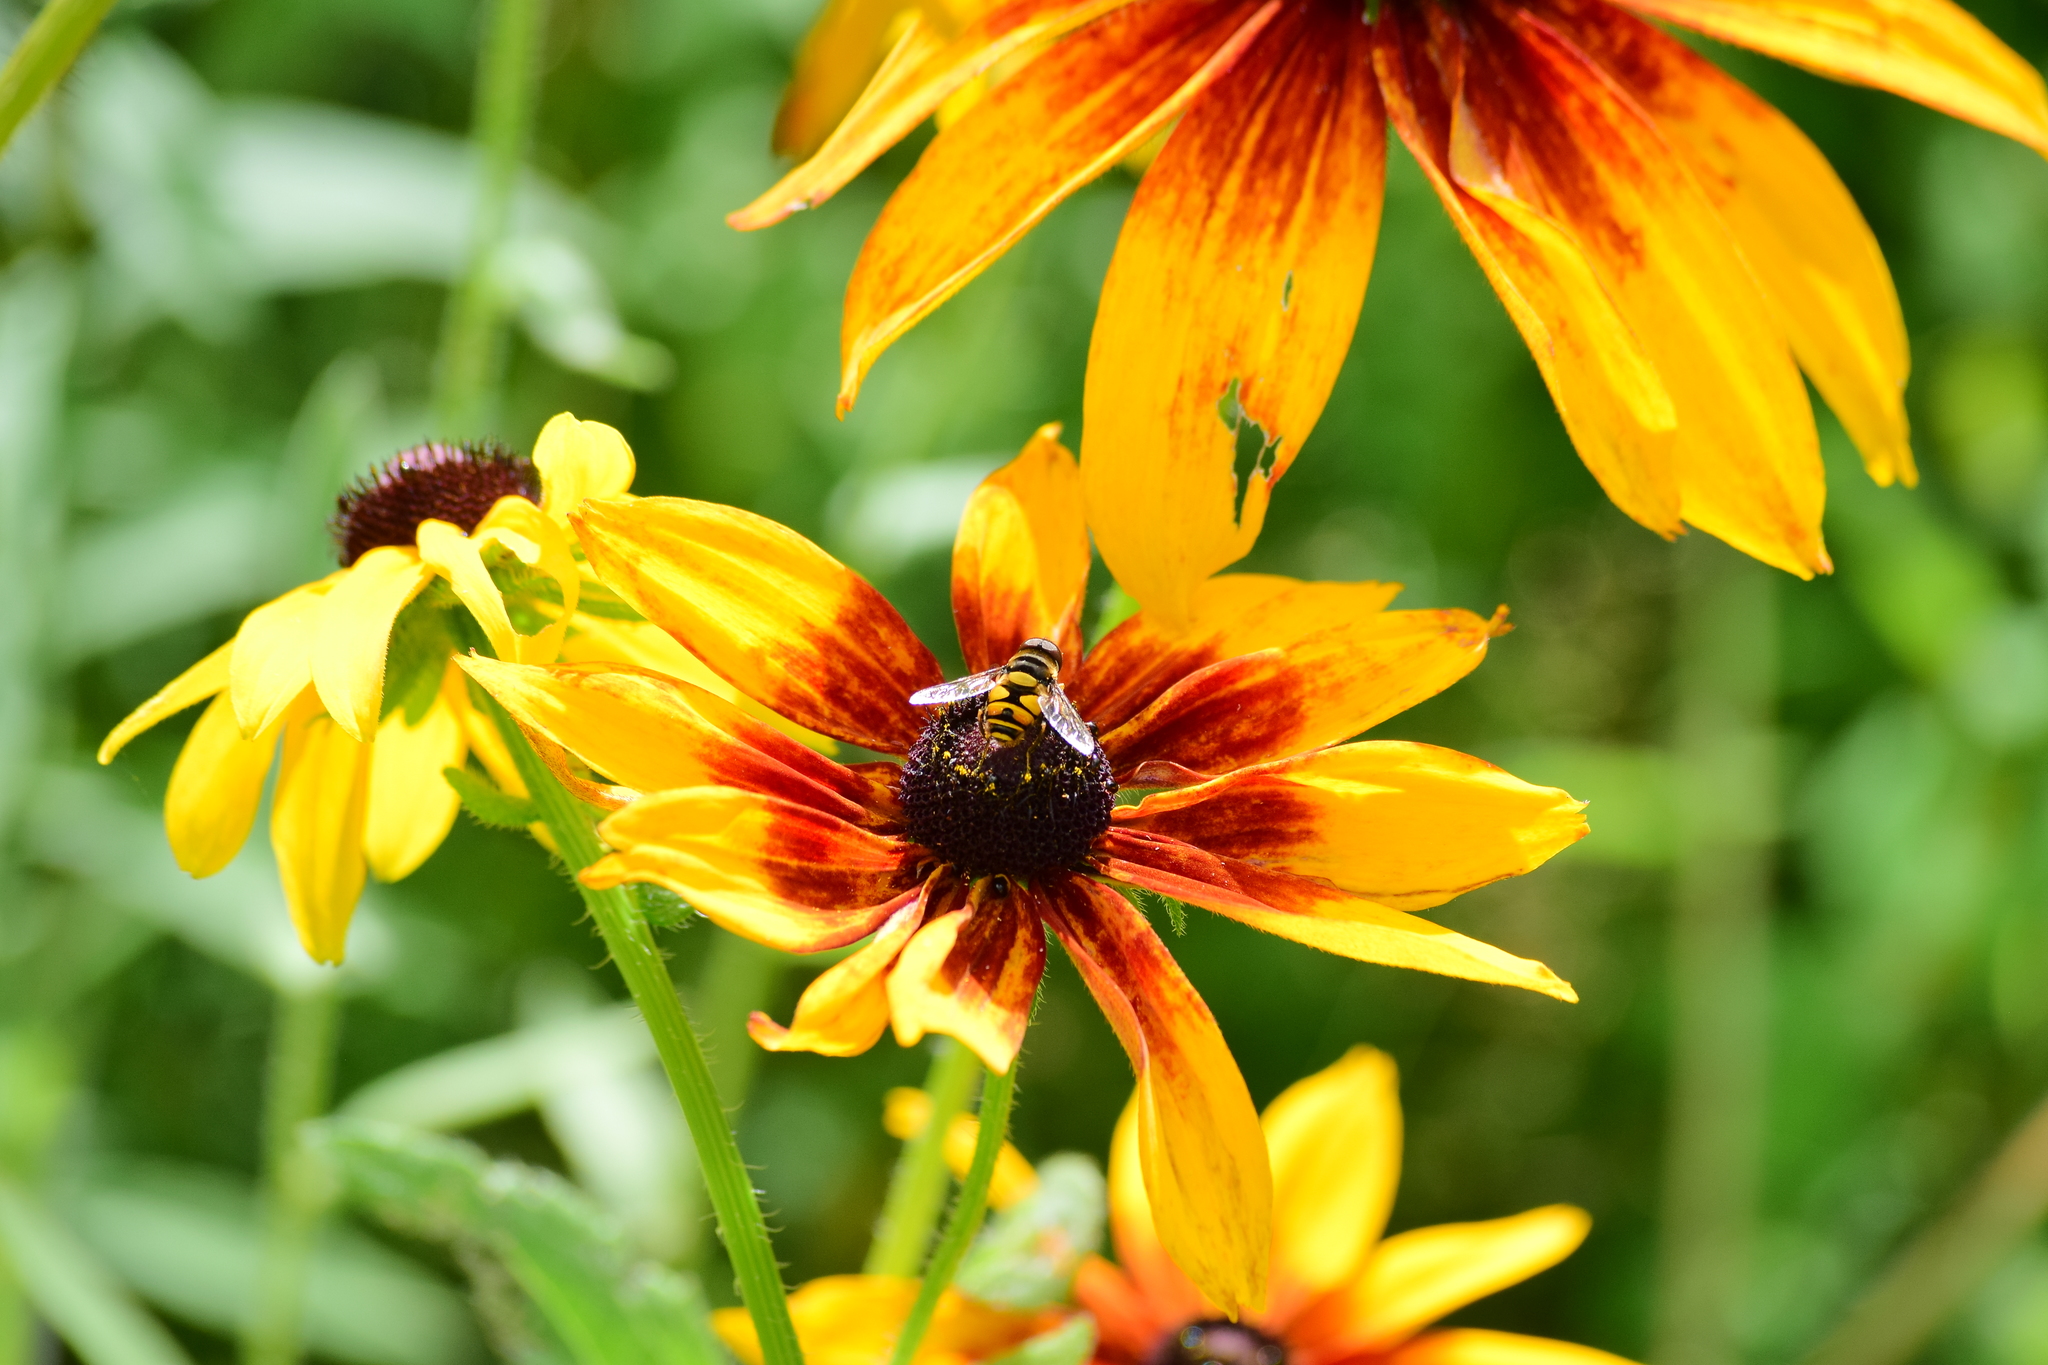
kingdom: Animalia
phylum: Arthropoda
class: Insecta
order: Diptera
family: Syrphidae
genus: Eristalis
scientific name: Eristalis transversa
